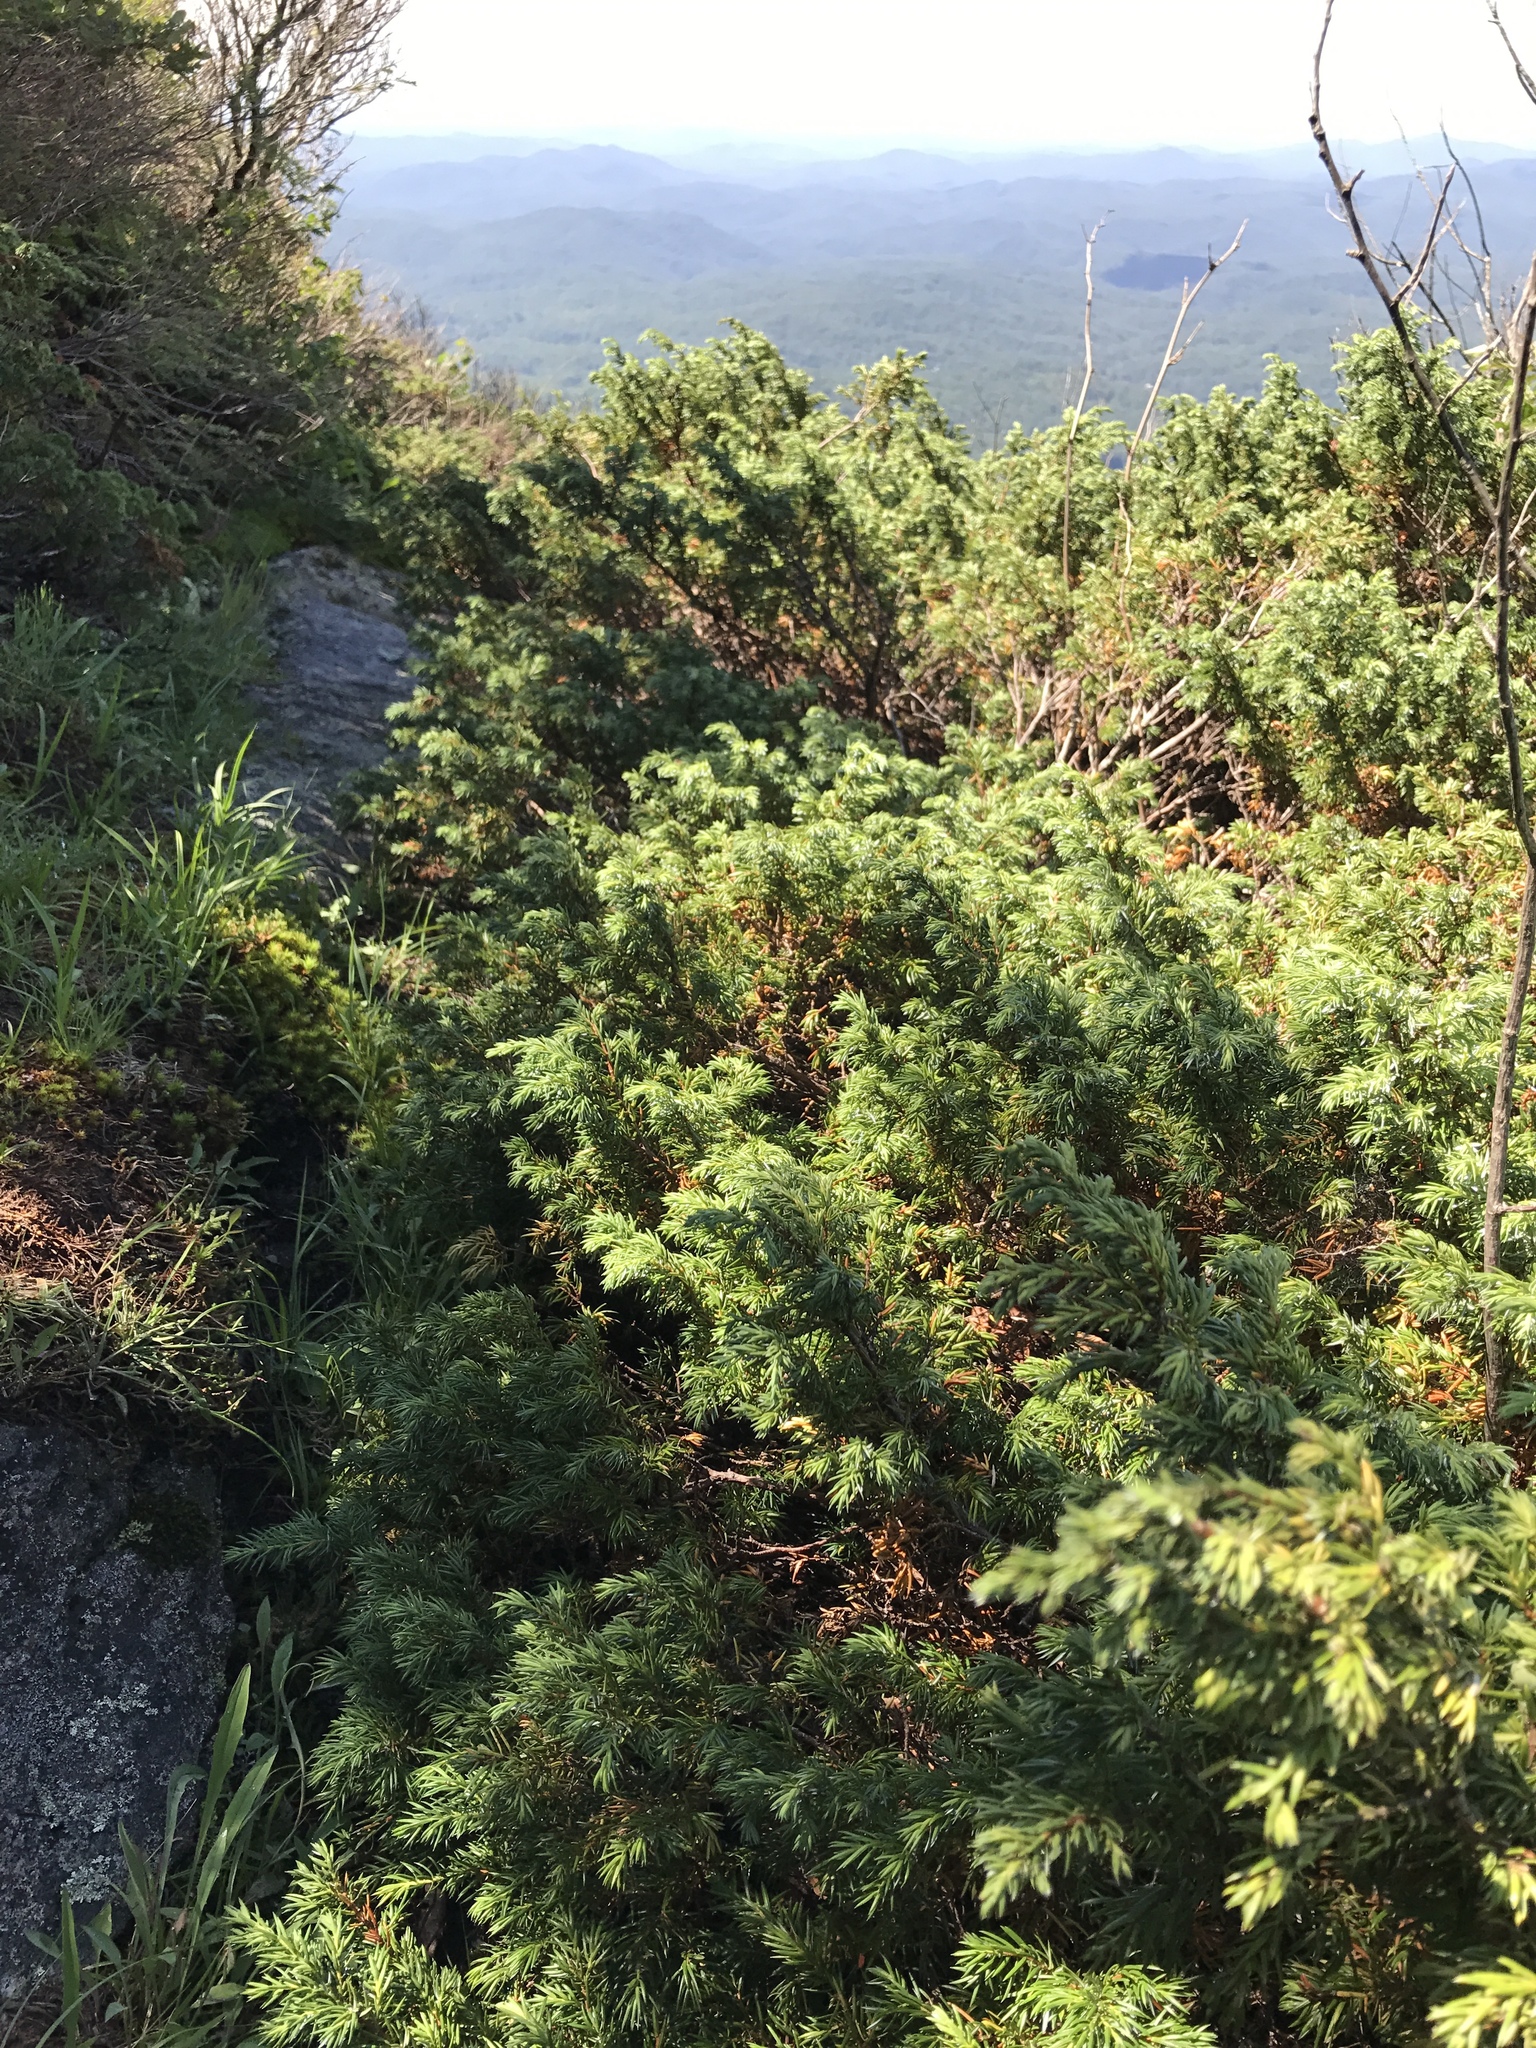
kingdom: Plantae
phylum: Tracheophyta
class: Pinopsida
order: Pinales
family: Cupressaceae
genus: Juniperus
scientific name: Juniperus communis
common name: Common juniper
